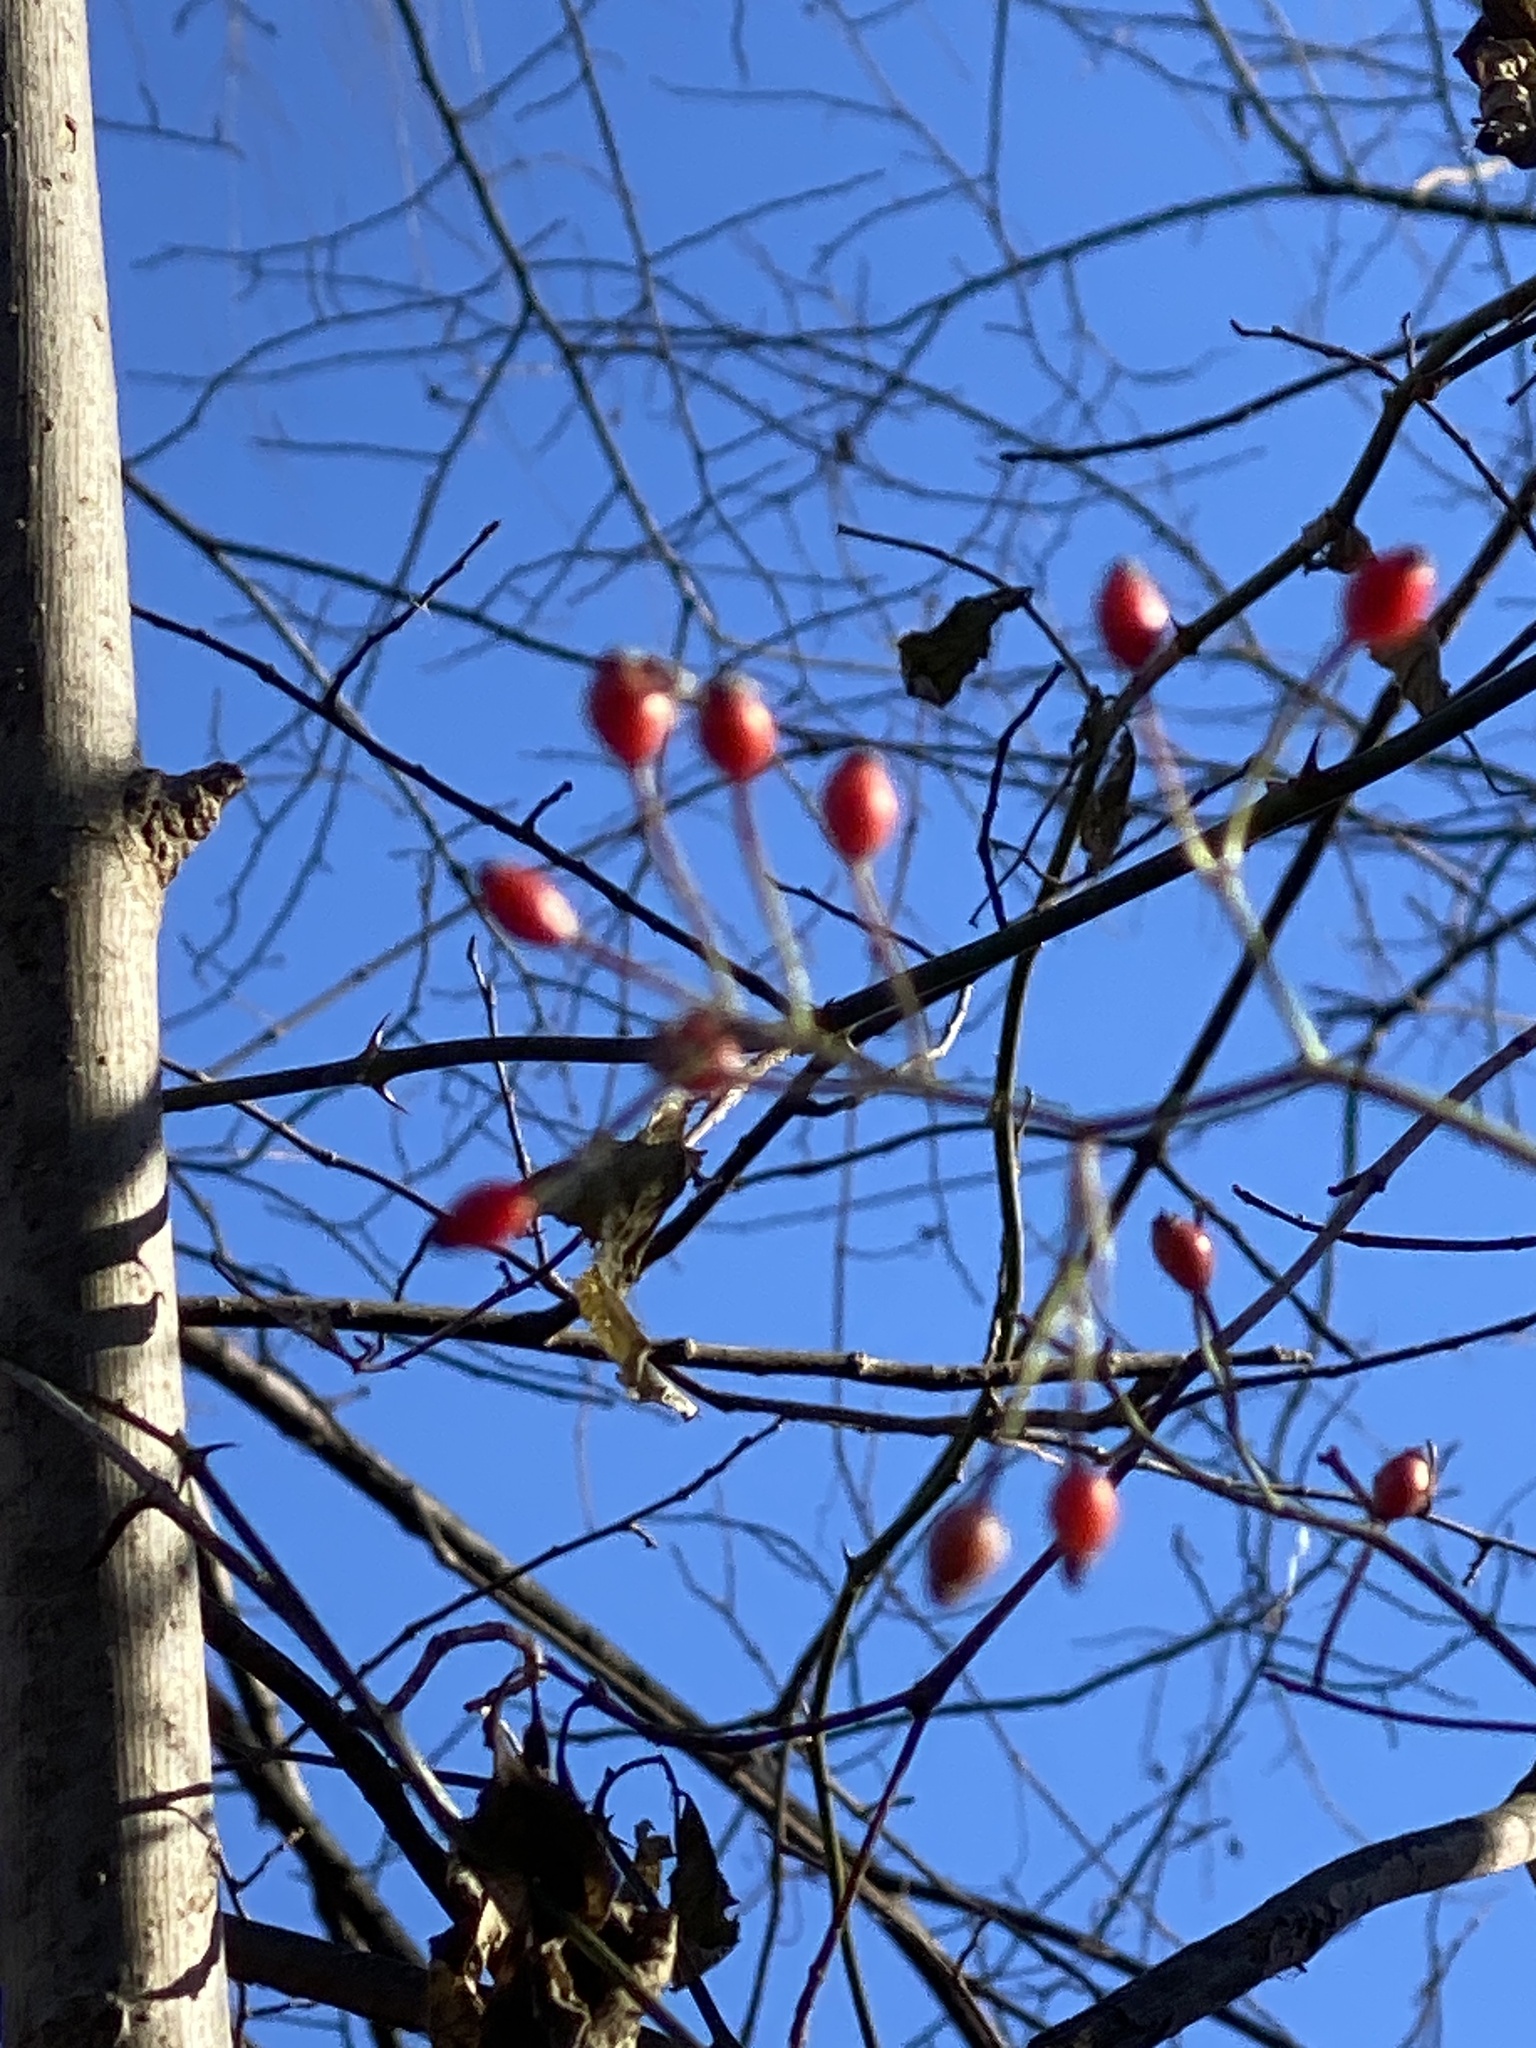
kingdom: Plantae
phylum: Tracheophyta
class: Magnoliopsida
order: Rosales
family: Rosaceae
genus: Rosa
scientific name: Rosa multiflora
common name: Multiflora rose
